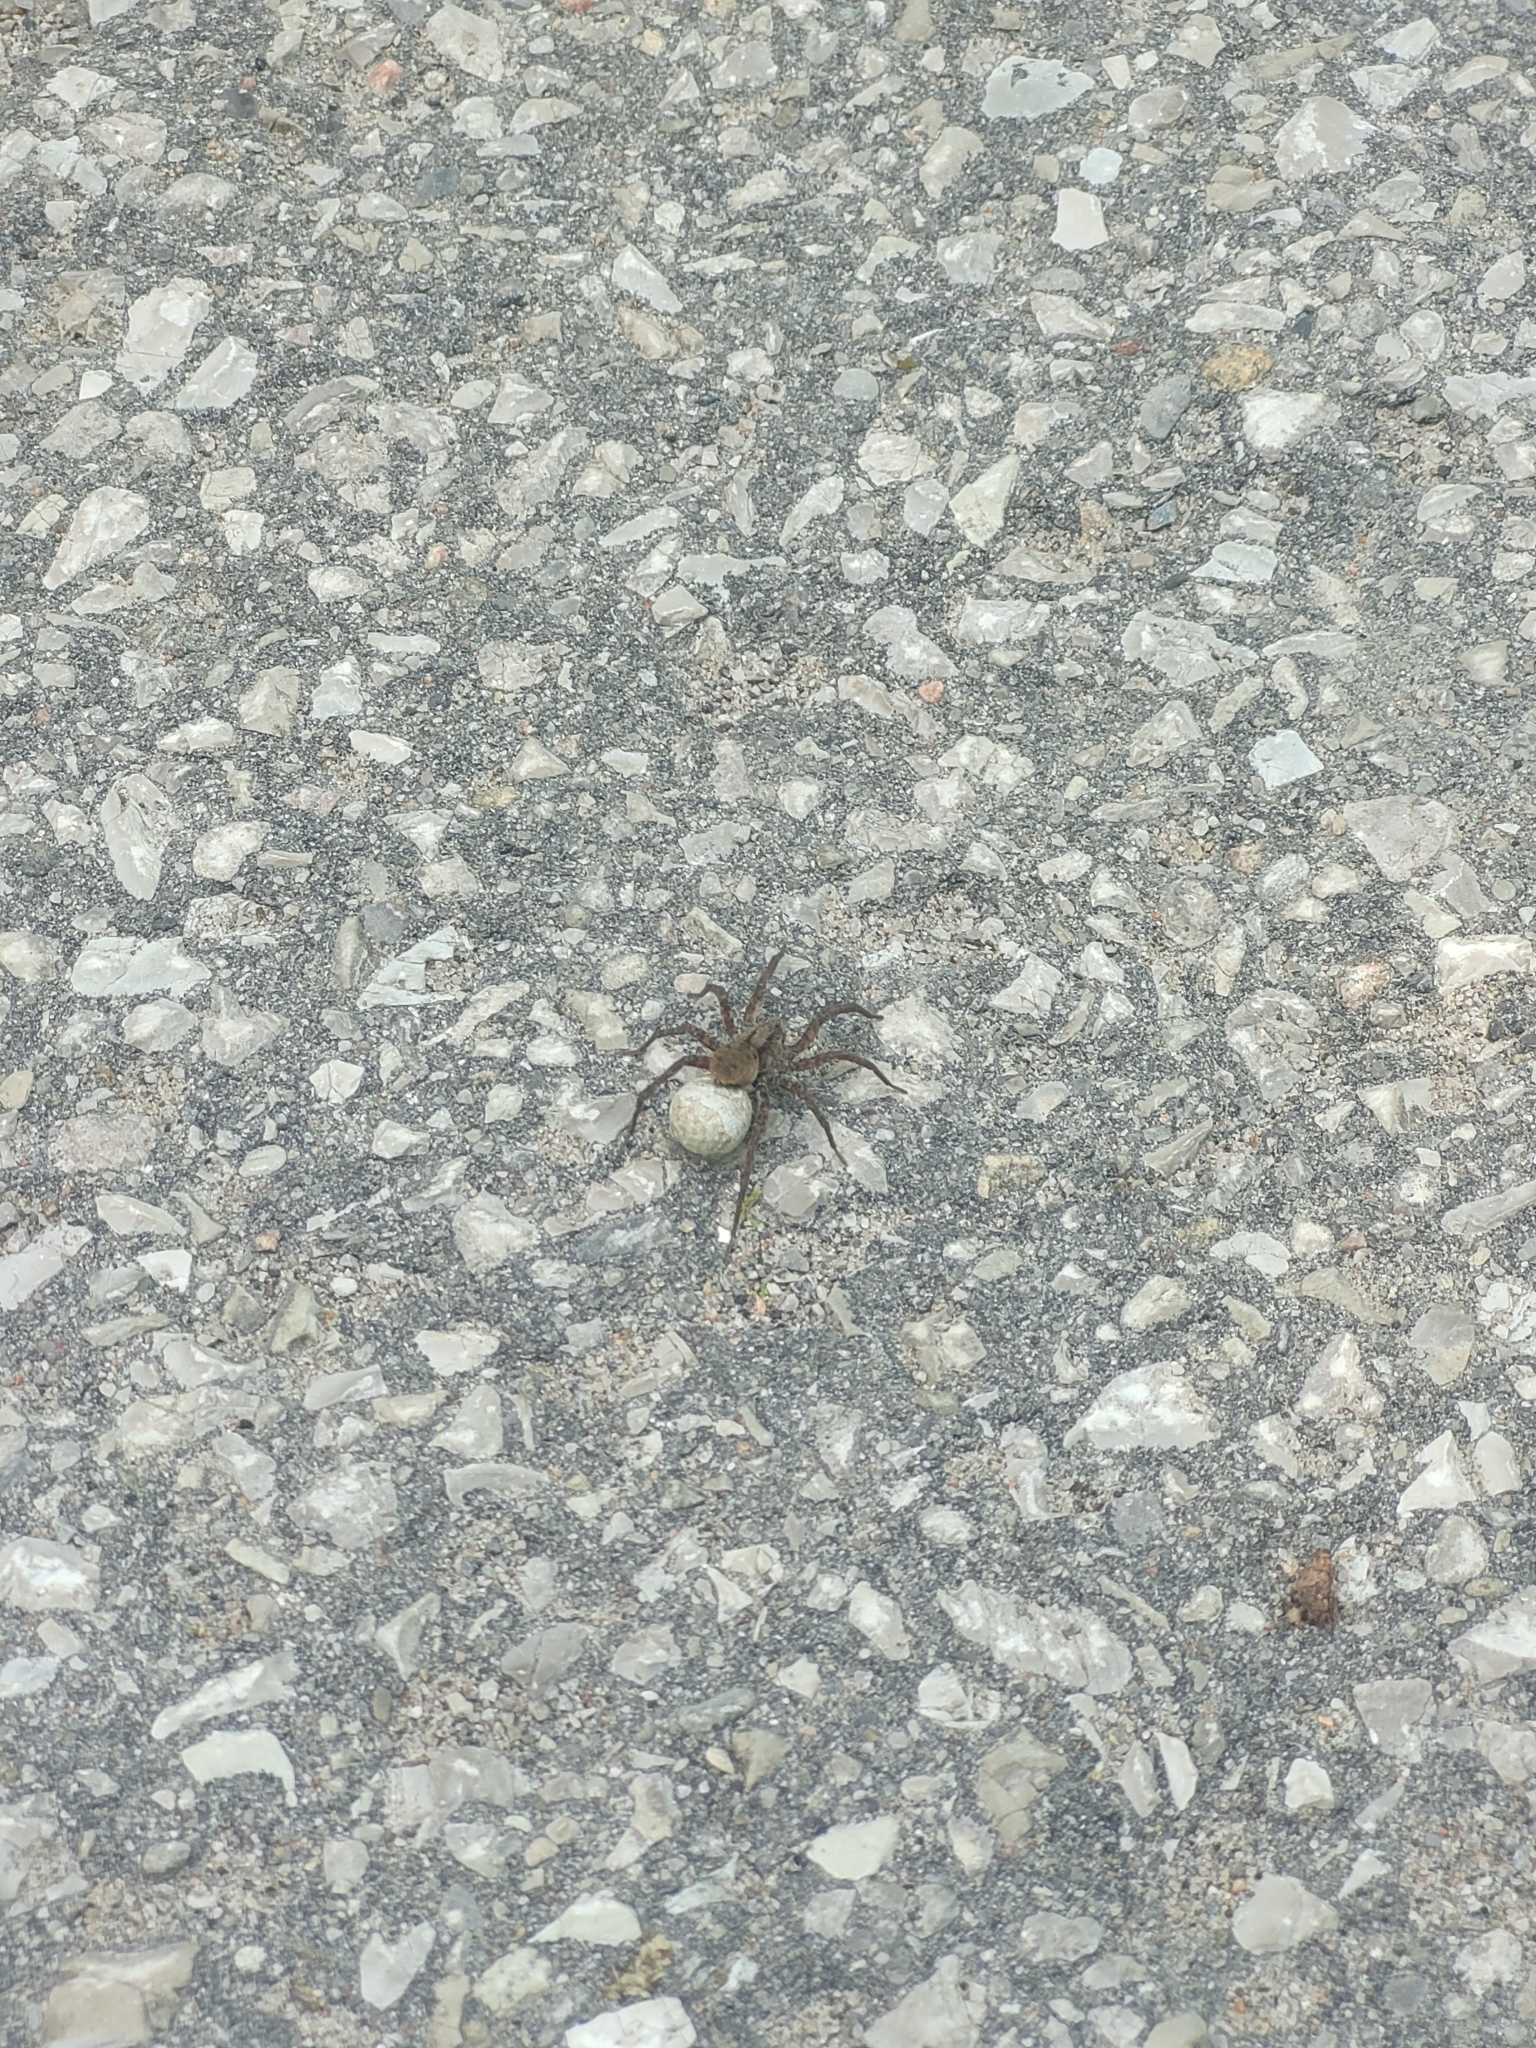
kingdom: Animalia
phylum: Arthropoda
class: Arachnida
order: Araneae
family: Lycosidae
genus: Gladicosa
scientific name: Gladicosa gulosa
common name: Drumming sword wolf spider
